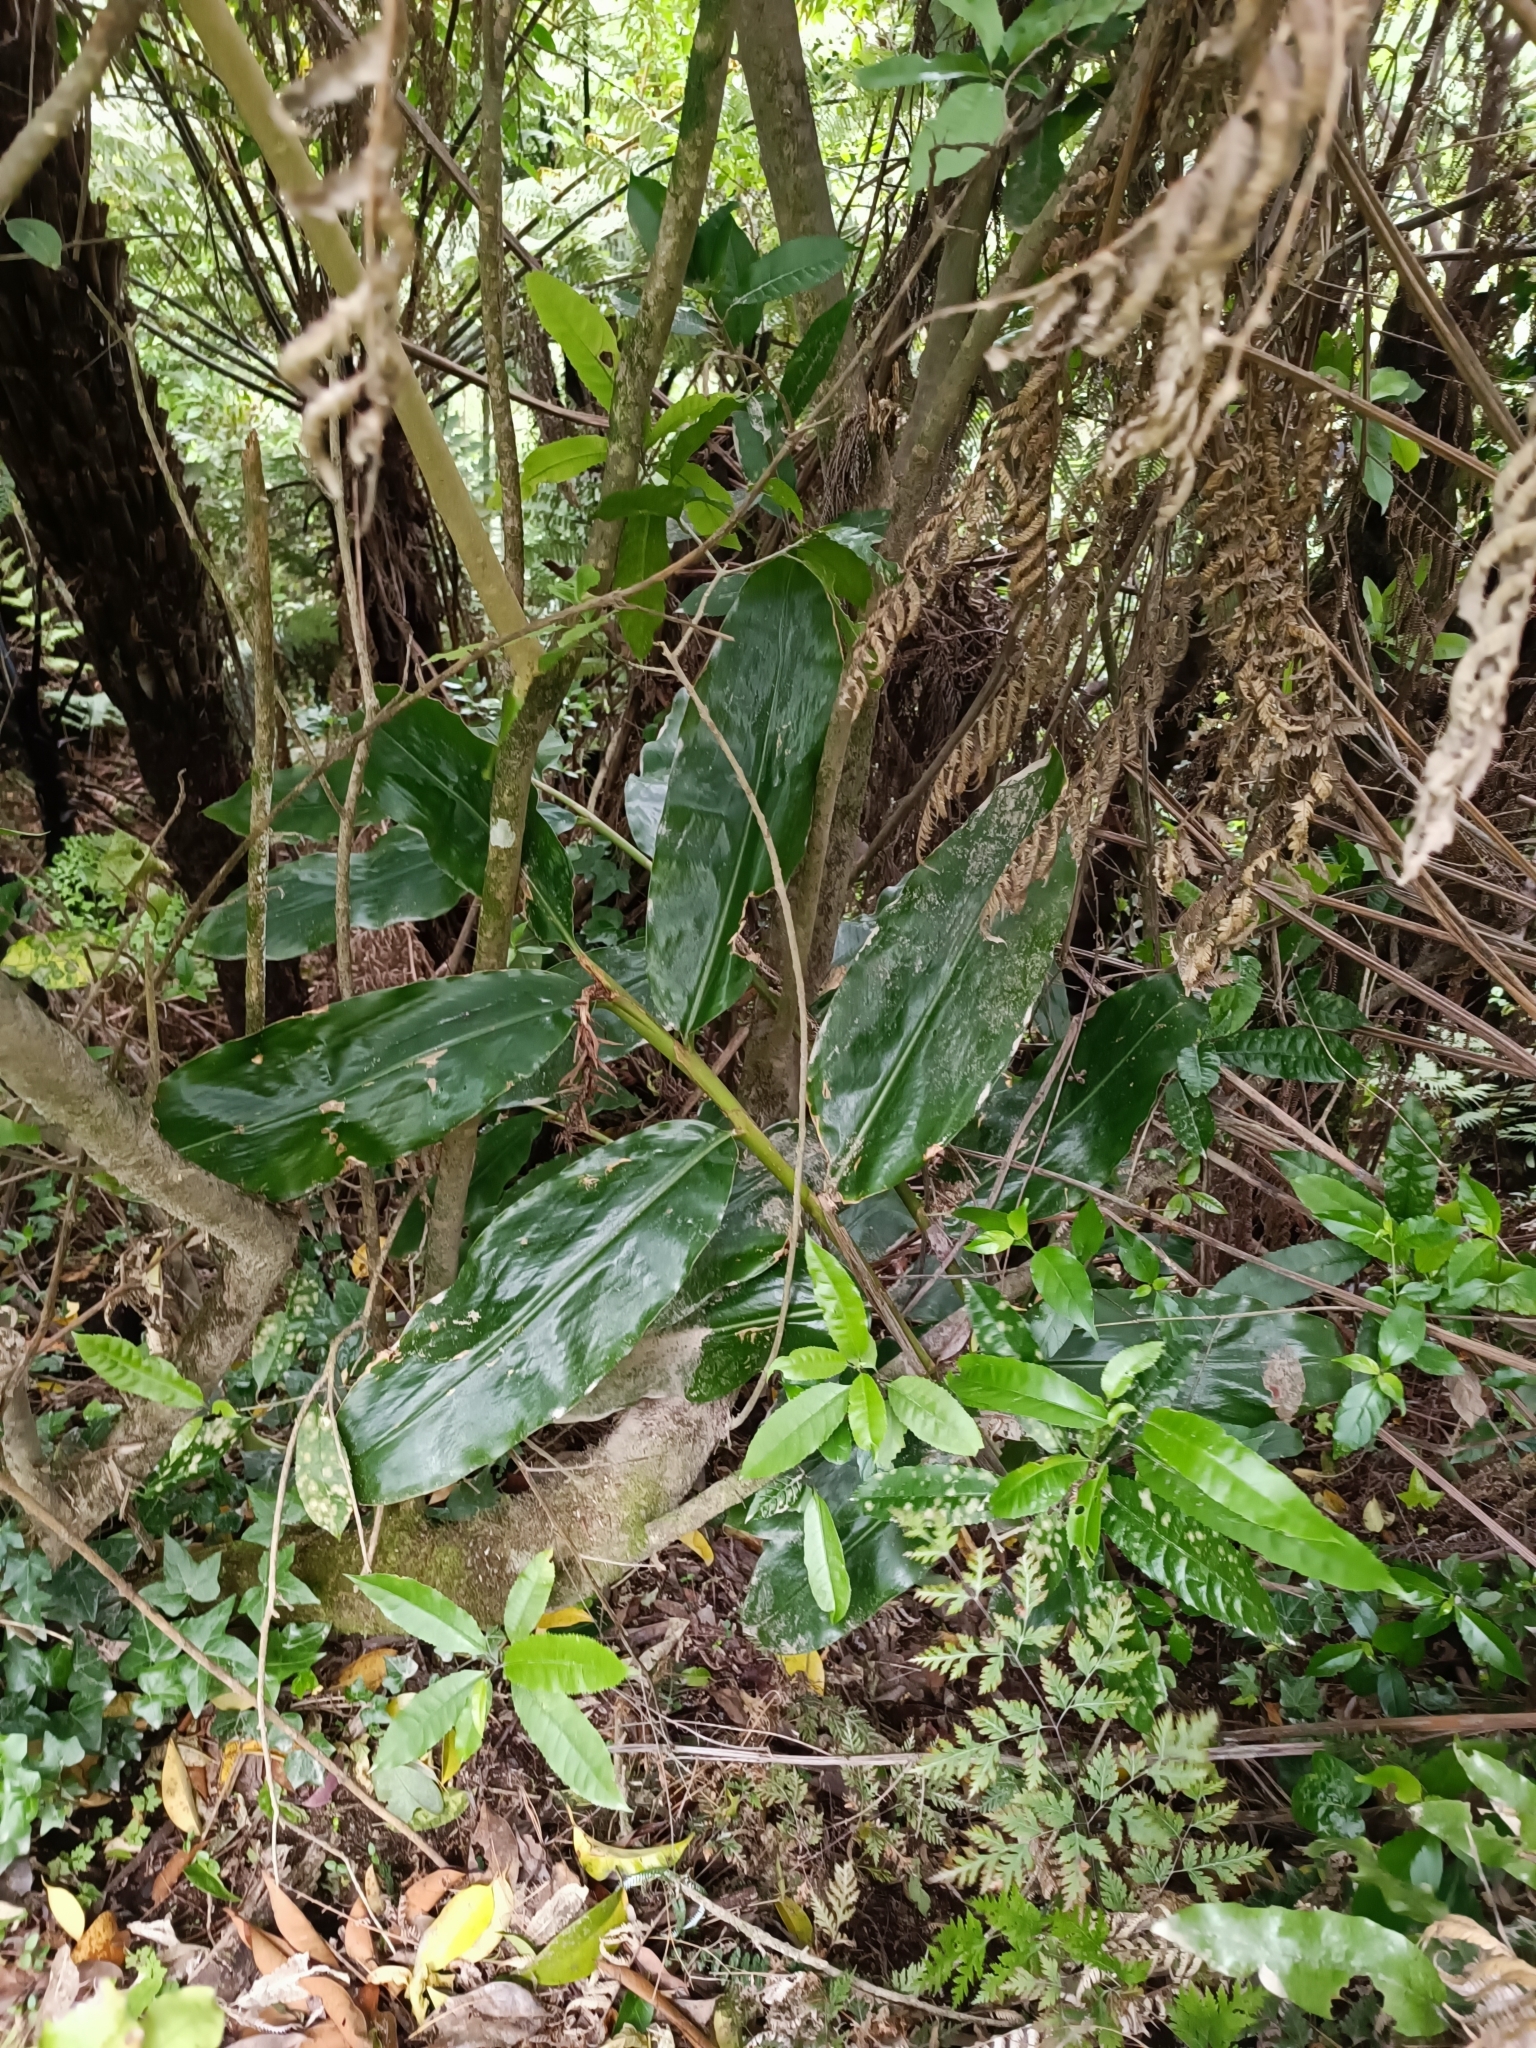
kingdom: Plantae
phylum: Tracheophyta
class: Liliopsida
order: Zingiberales
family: Zingiberaceae
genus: Hedychium
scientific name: Hedychium gardnerianum
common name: Himalayan ginger
